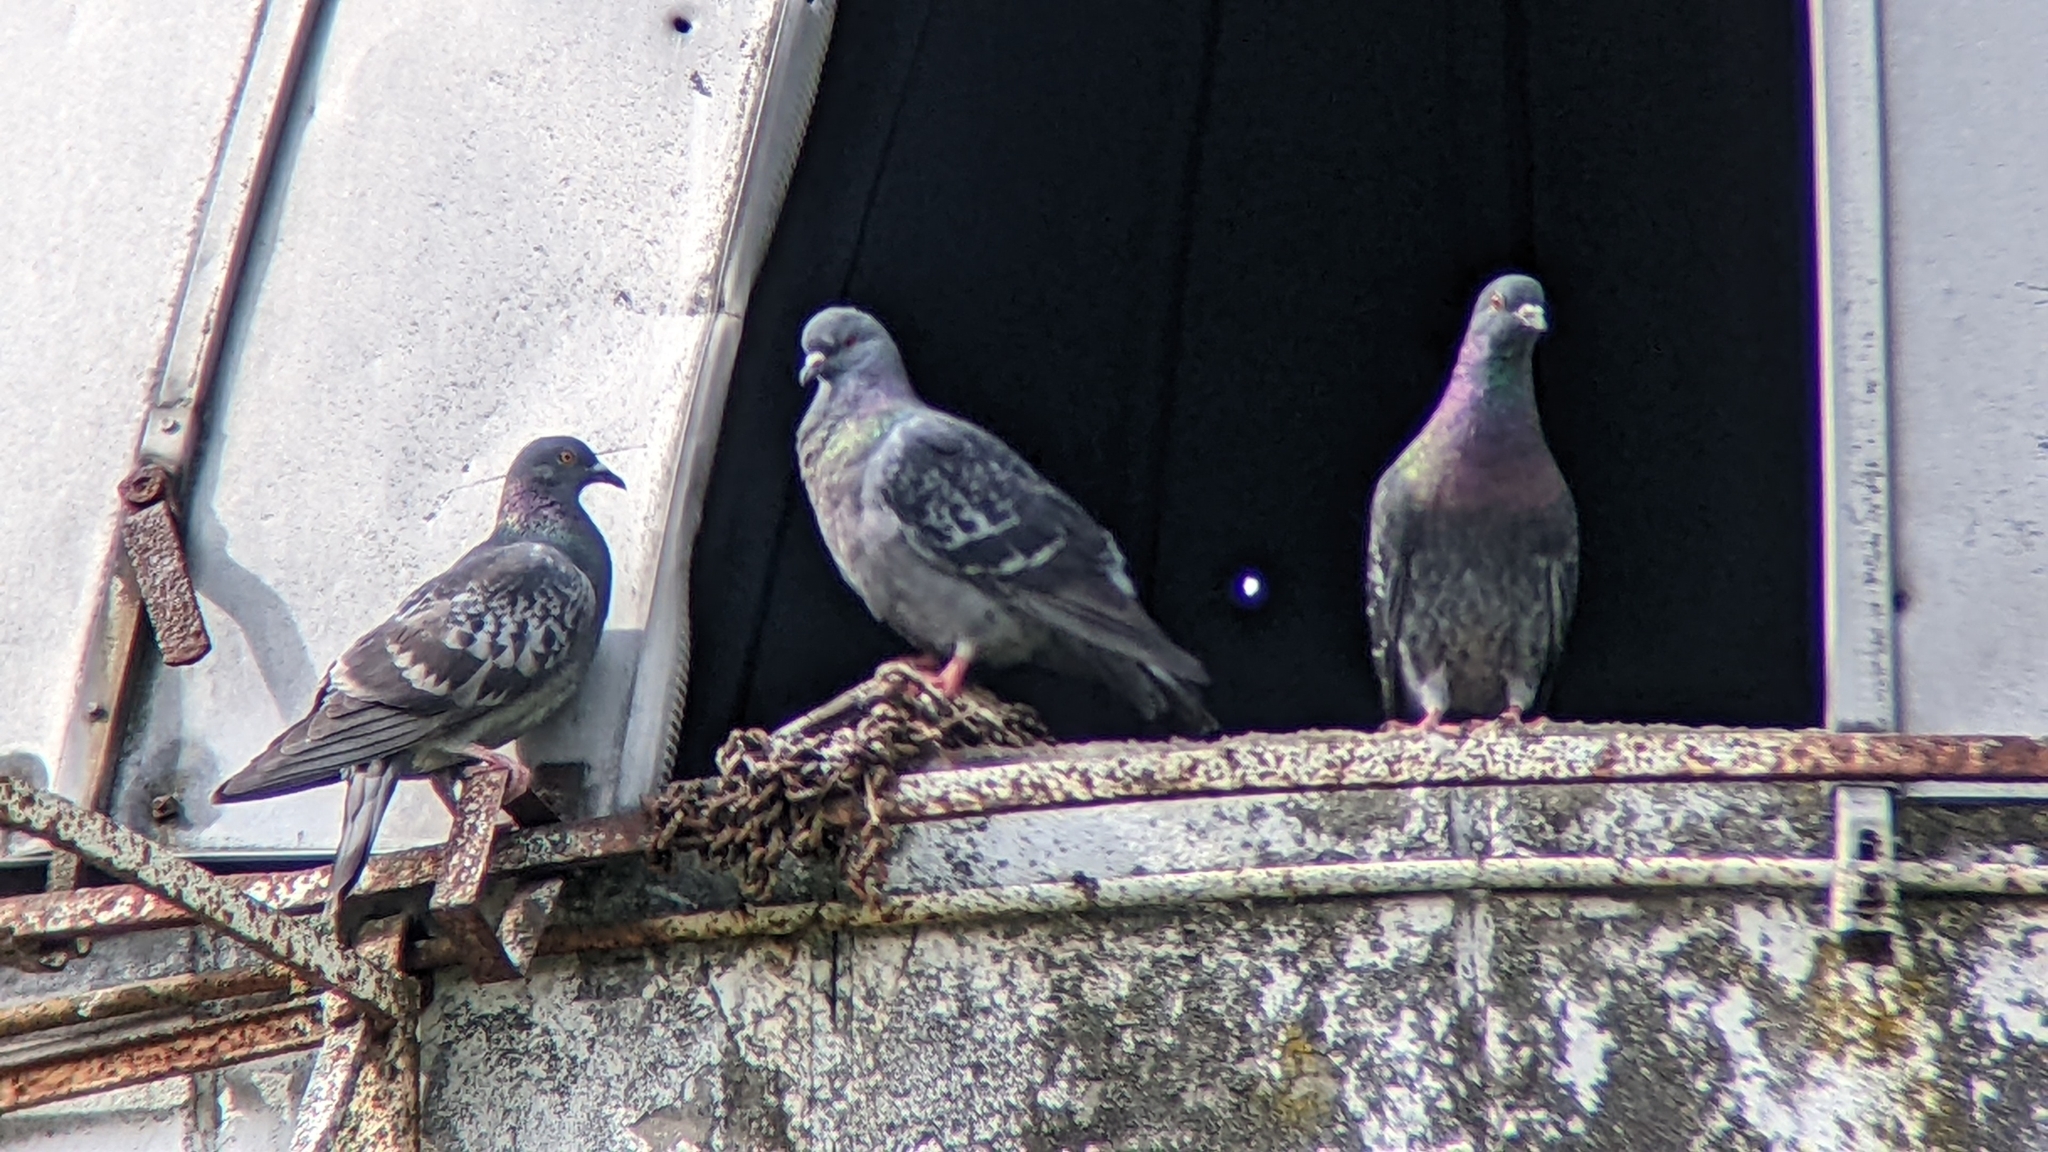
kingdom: Animalia
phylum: Chordata
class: Aves
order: Columbiformes
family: Columbidae
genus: Columba
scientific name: Columba livia
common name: Rock pigeon
